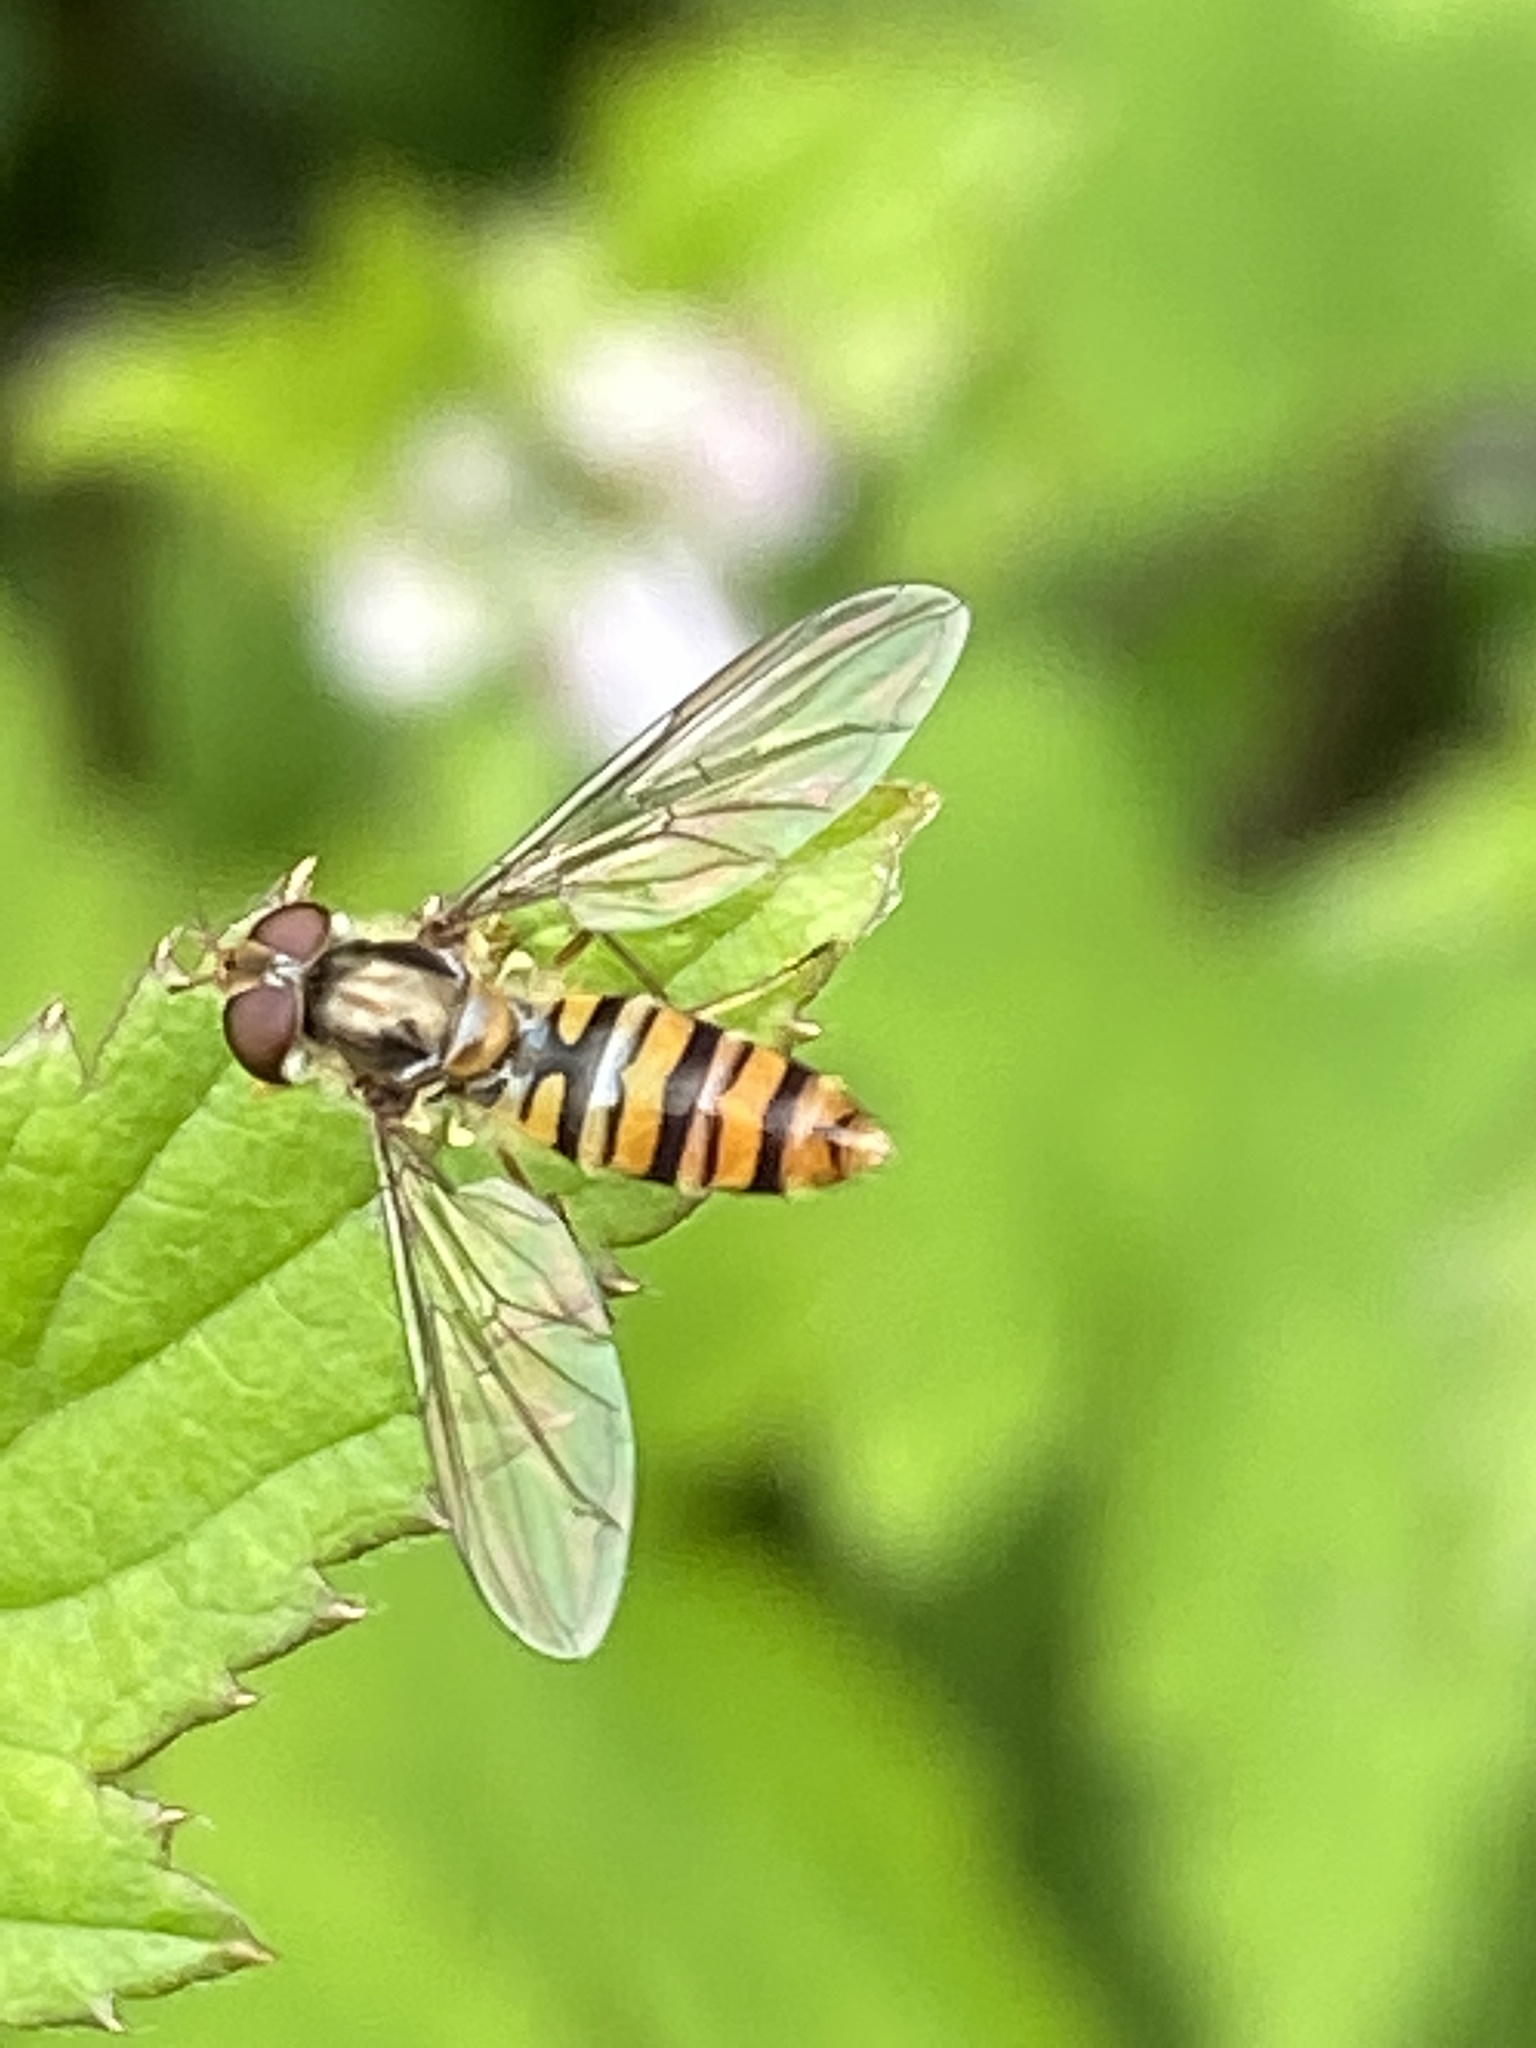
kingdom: Animalia
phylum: Arthropoda
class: Insecta
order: Diptera
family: Syrphidae
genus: Episyrphus
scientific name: Episyrphus balteatus
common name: Marmalade hoverfly
